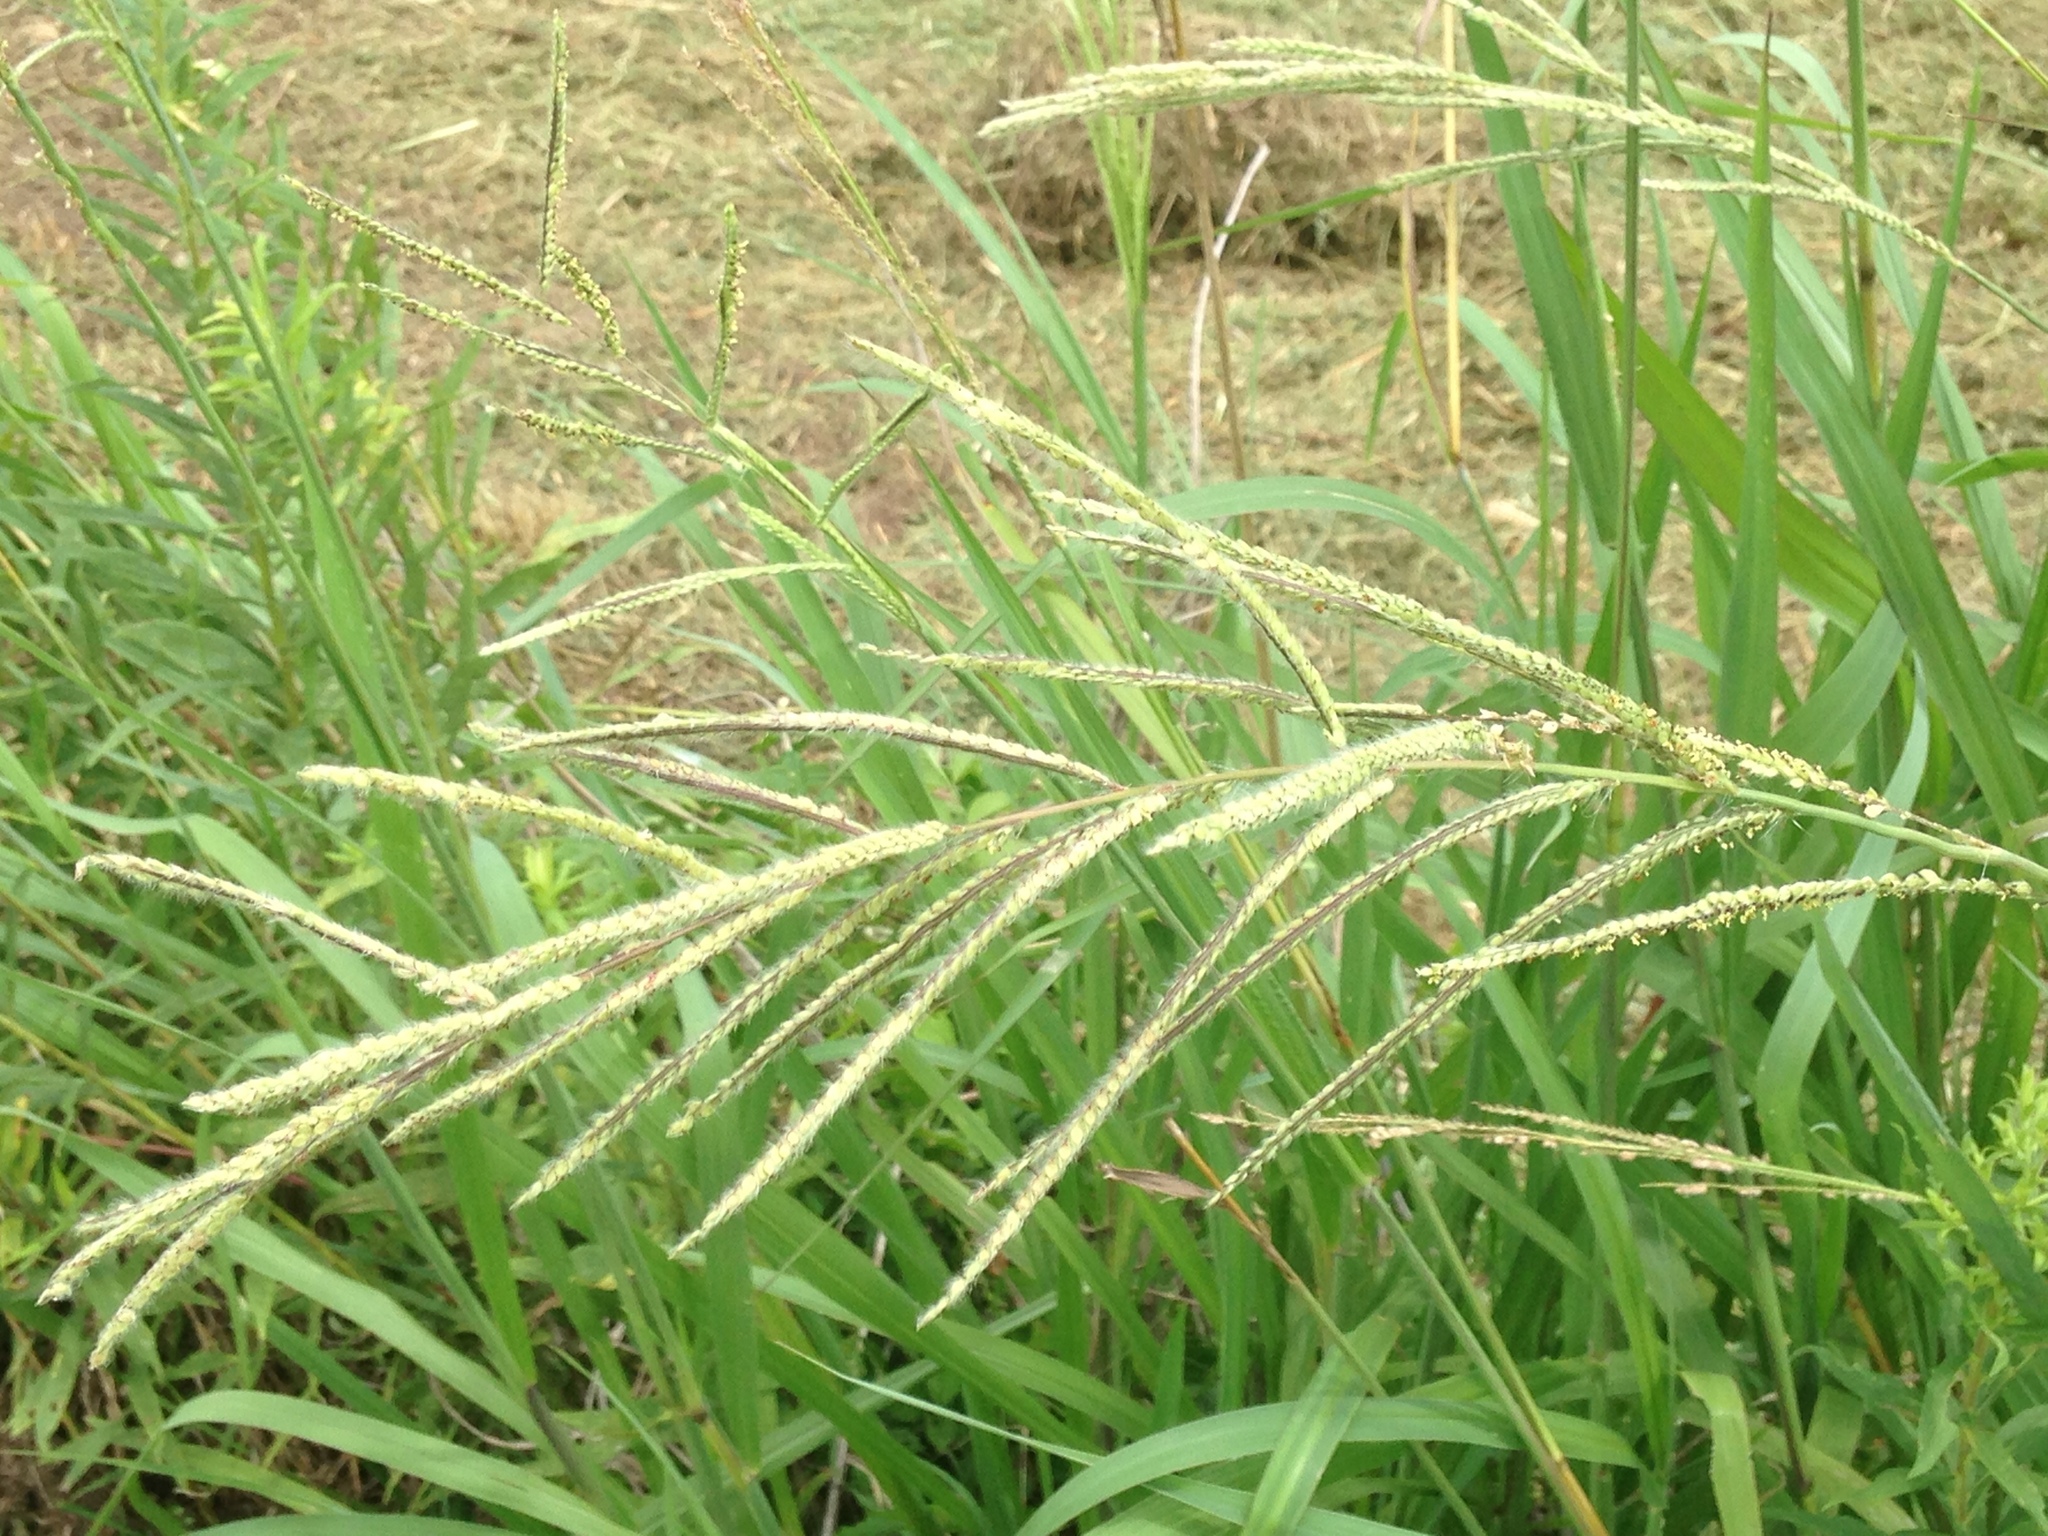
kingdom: Plantae
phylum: Tracheophyta
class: Liliopsida
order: Poales
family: Poaceae
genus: Paspalum
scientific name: Paspalum urvillei
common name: Vasey's grass
